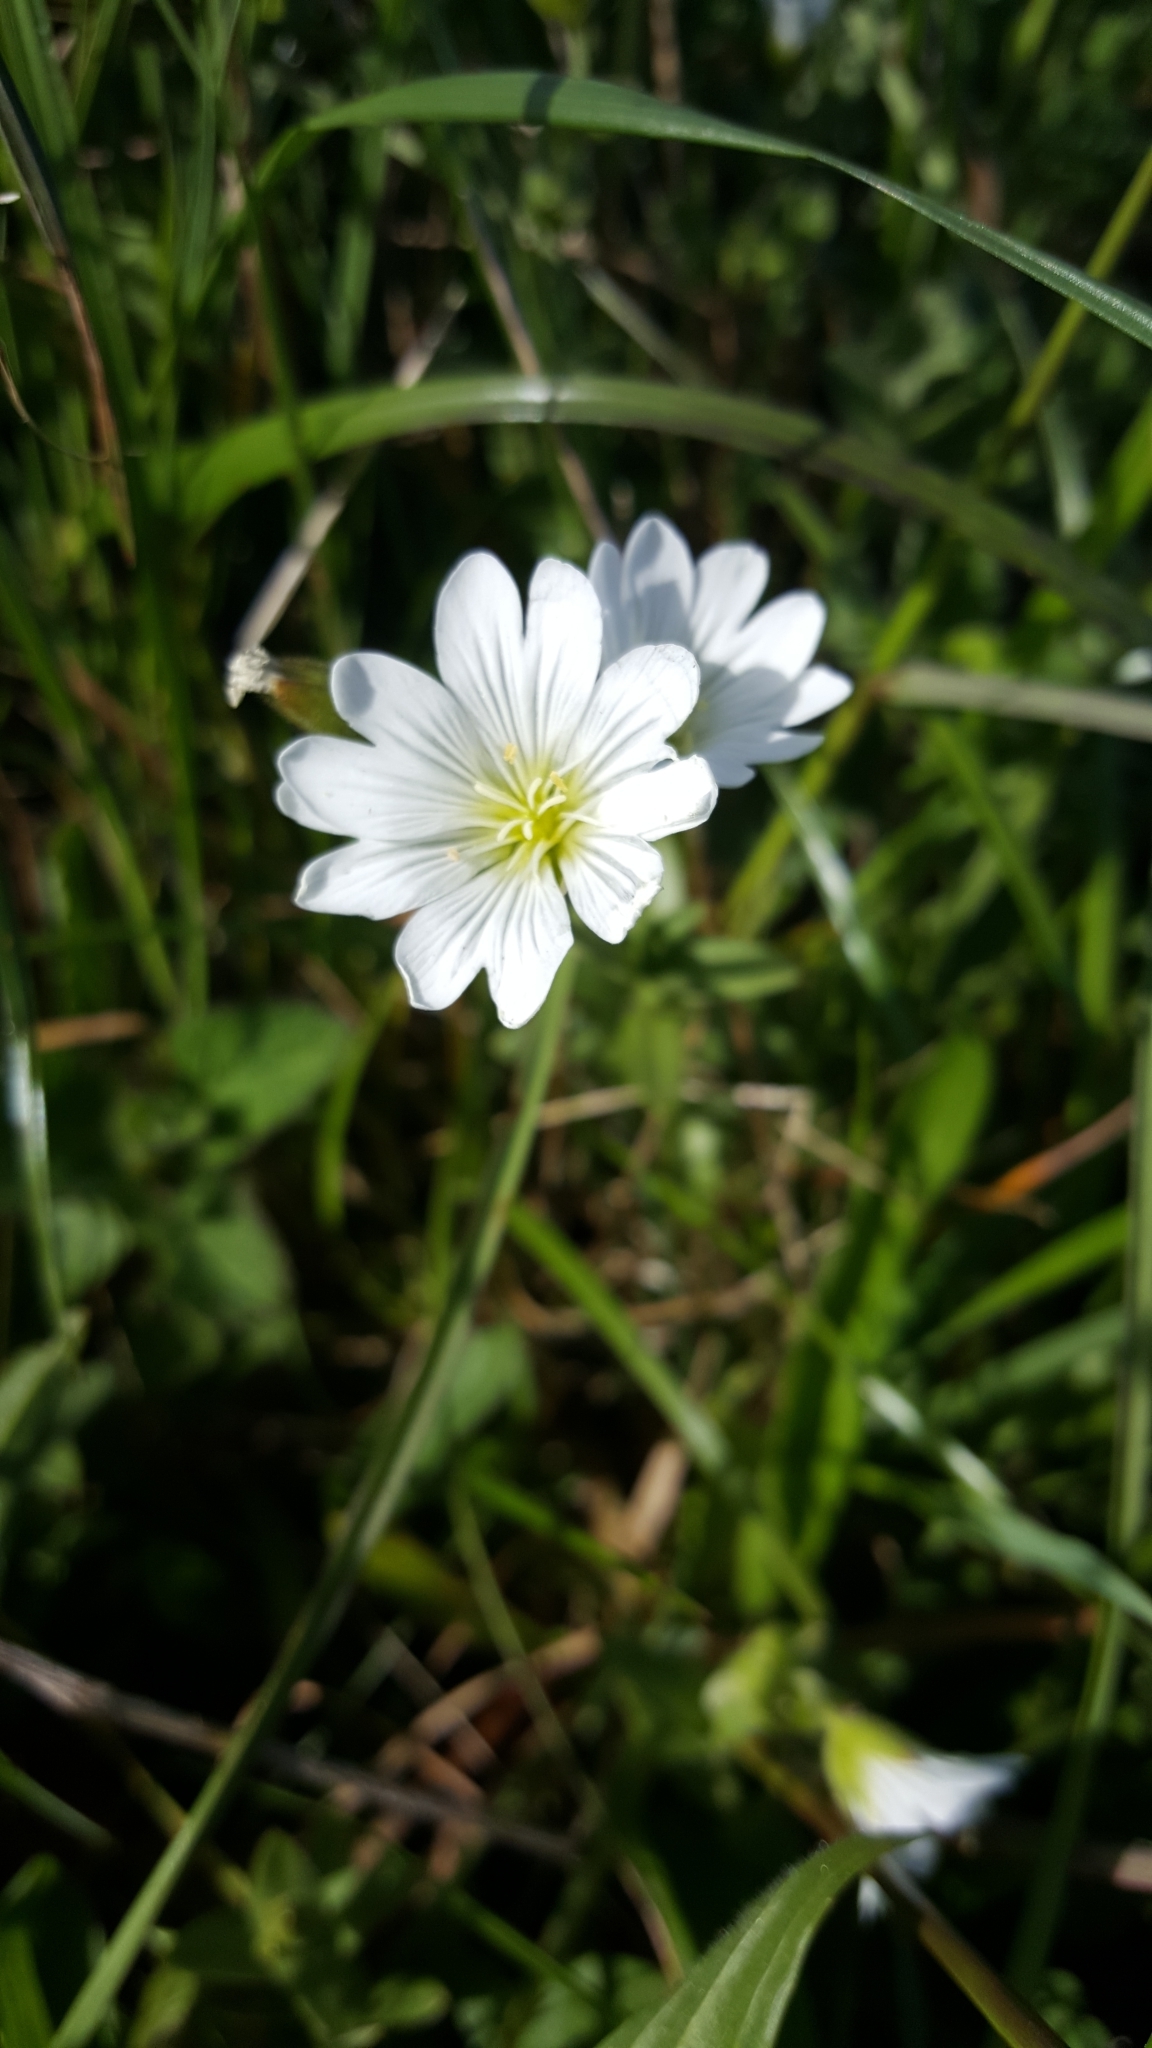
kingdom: Plantae
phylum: Tracheophyta
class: Magnoliopsida
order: Caryophyllales
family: Caryophyllaceae
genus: Cerastium
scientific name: Cerastium arvense
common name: Field mouse-ear
